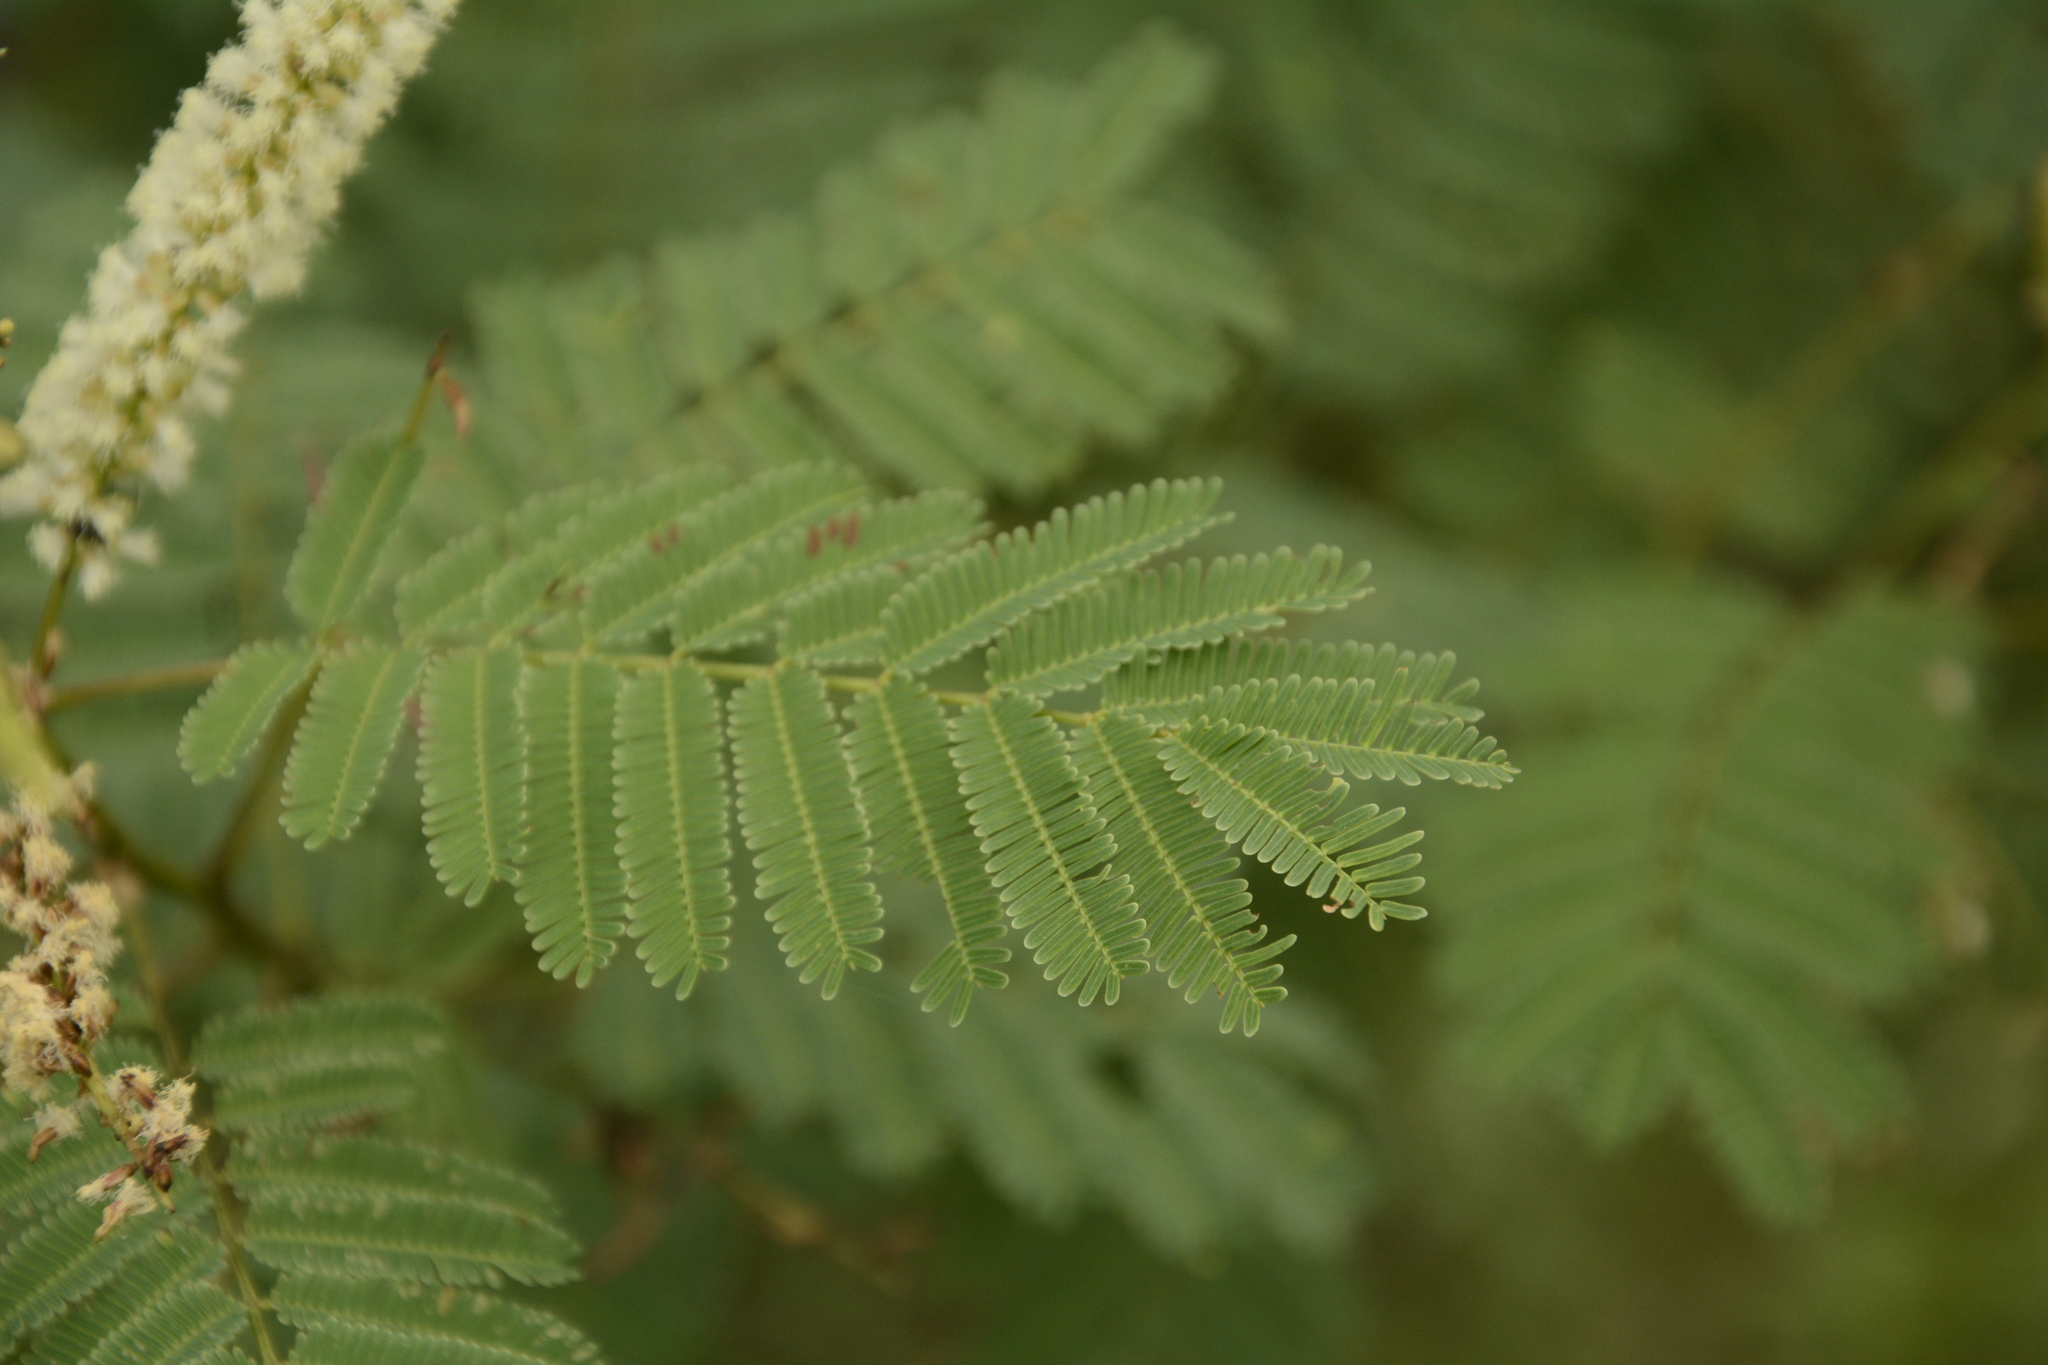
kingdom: Plantae
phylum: Tracheophyta
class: Magnoliopsida
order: Fabales
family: Fabaceae
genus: Senegalia
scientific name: Senegalia chundra
